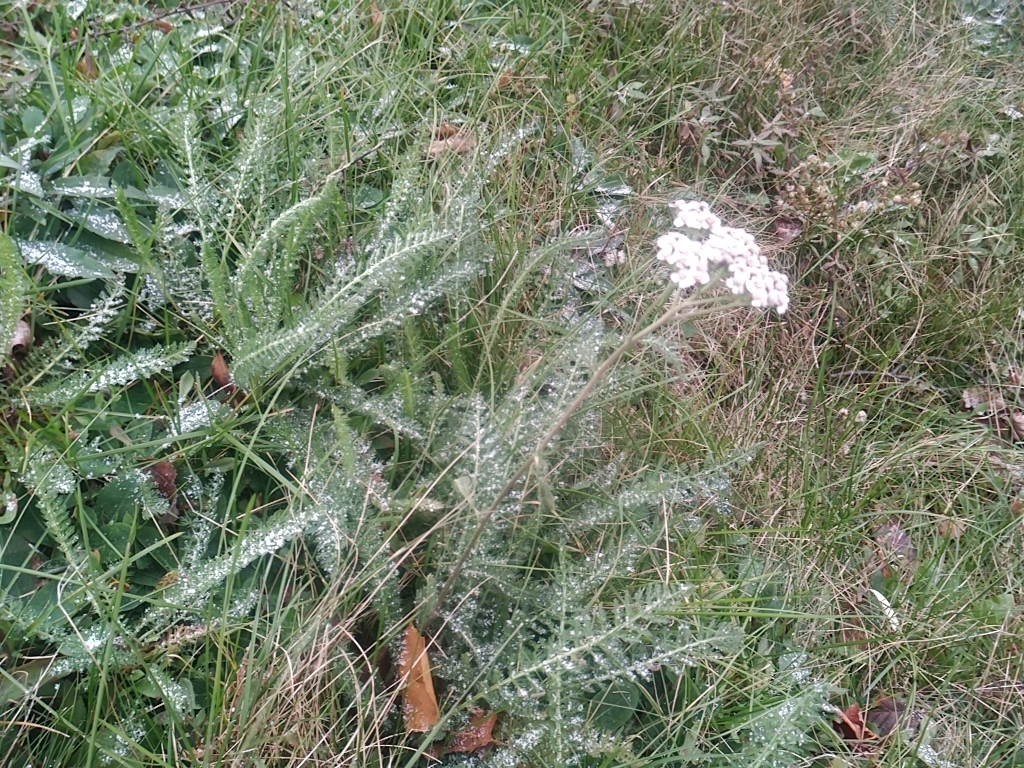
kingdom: Plantae
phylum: Tracheophyta
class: Magnoliopsida
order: Asterales
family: Asteraceae
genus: Achillea
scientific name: Achillea millefolium
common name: Yarrow
